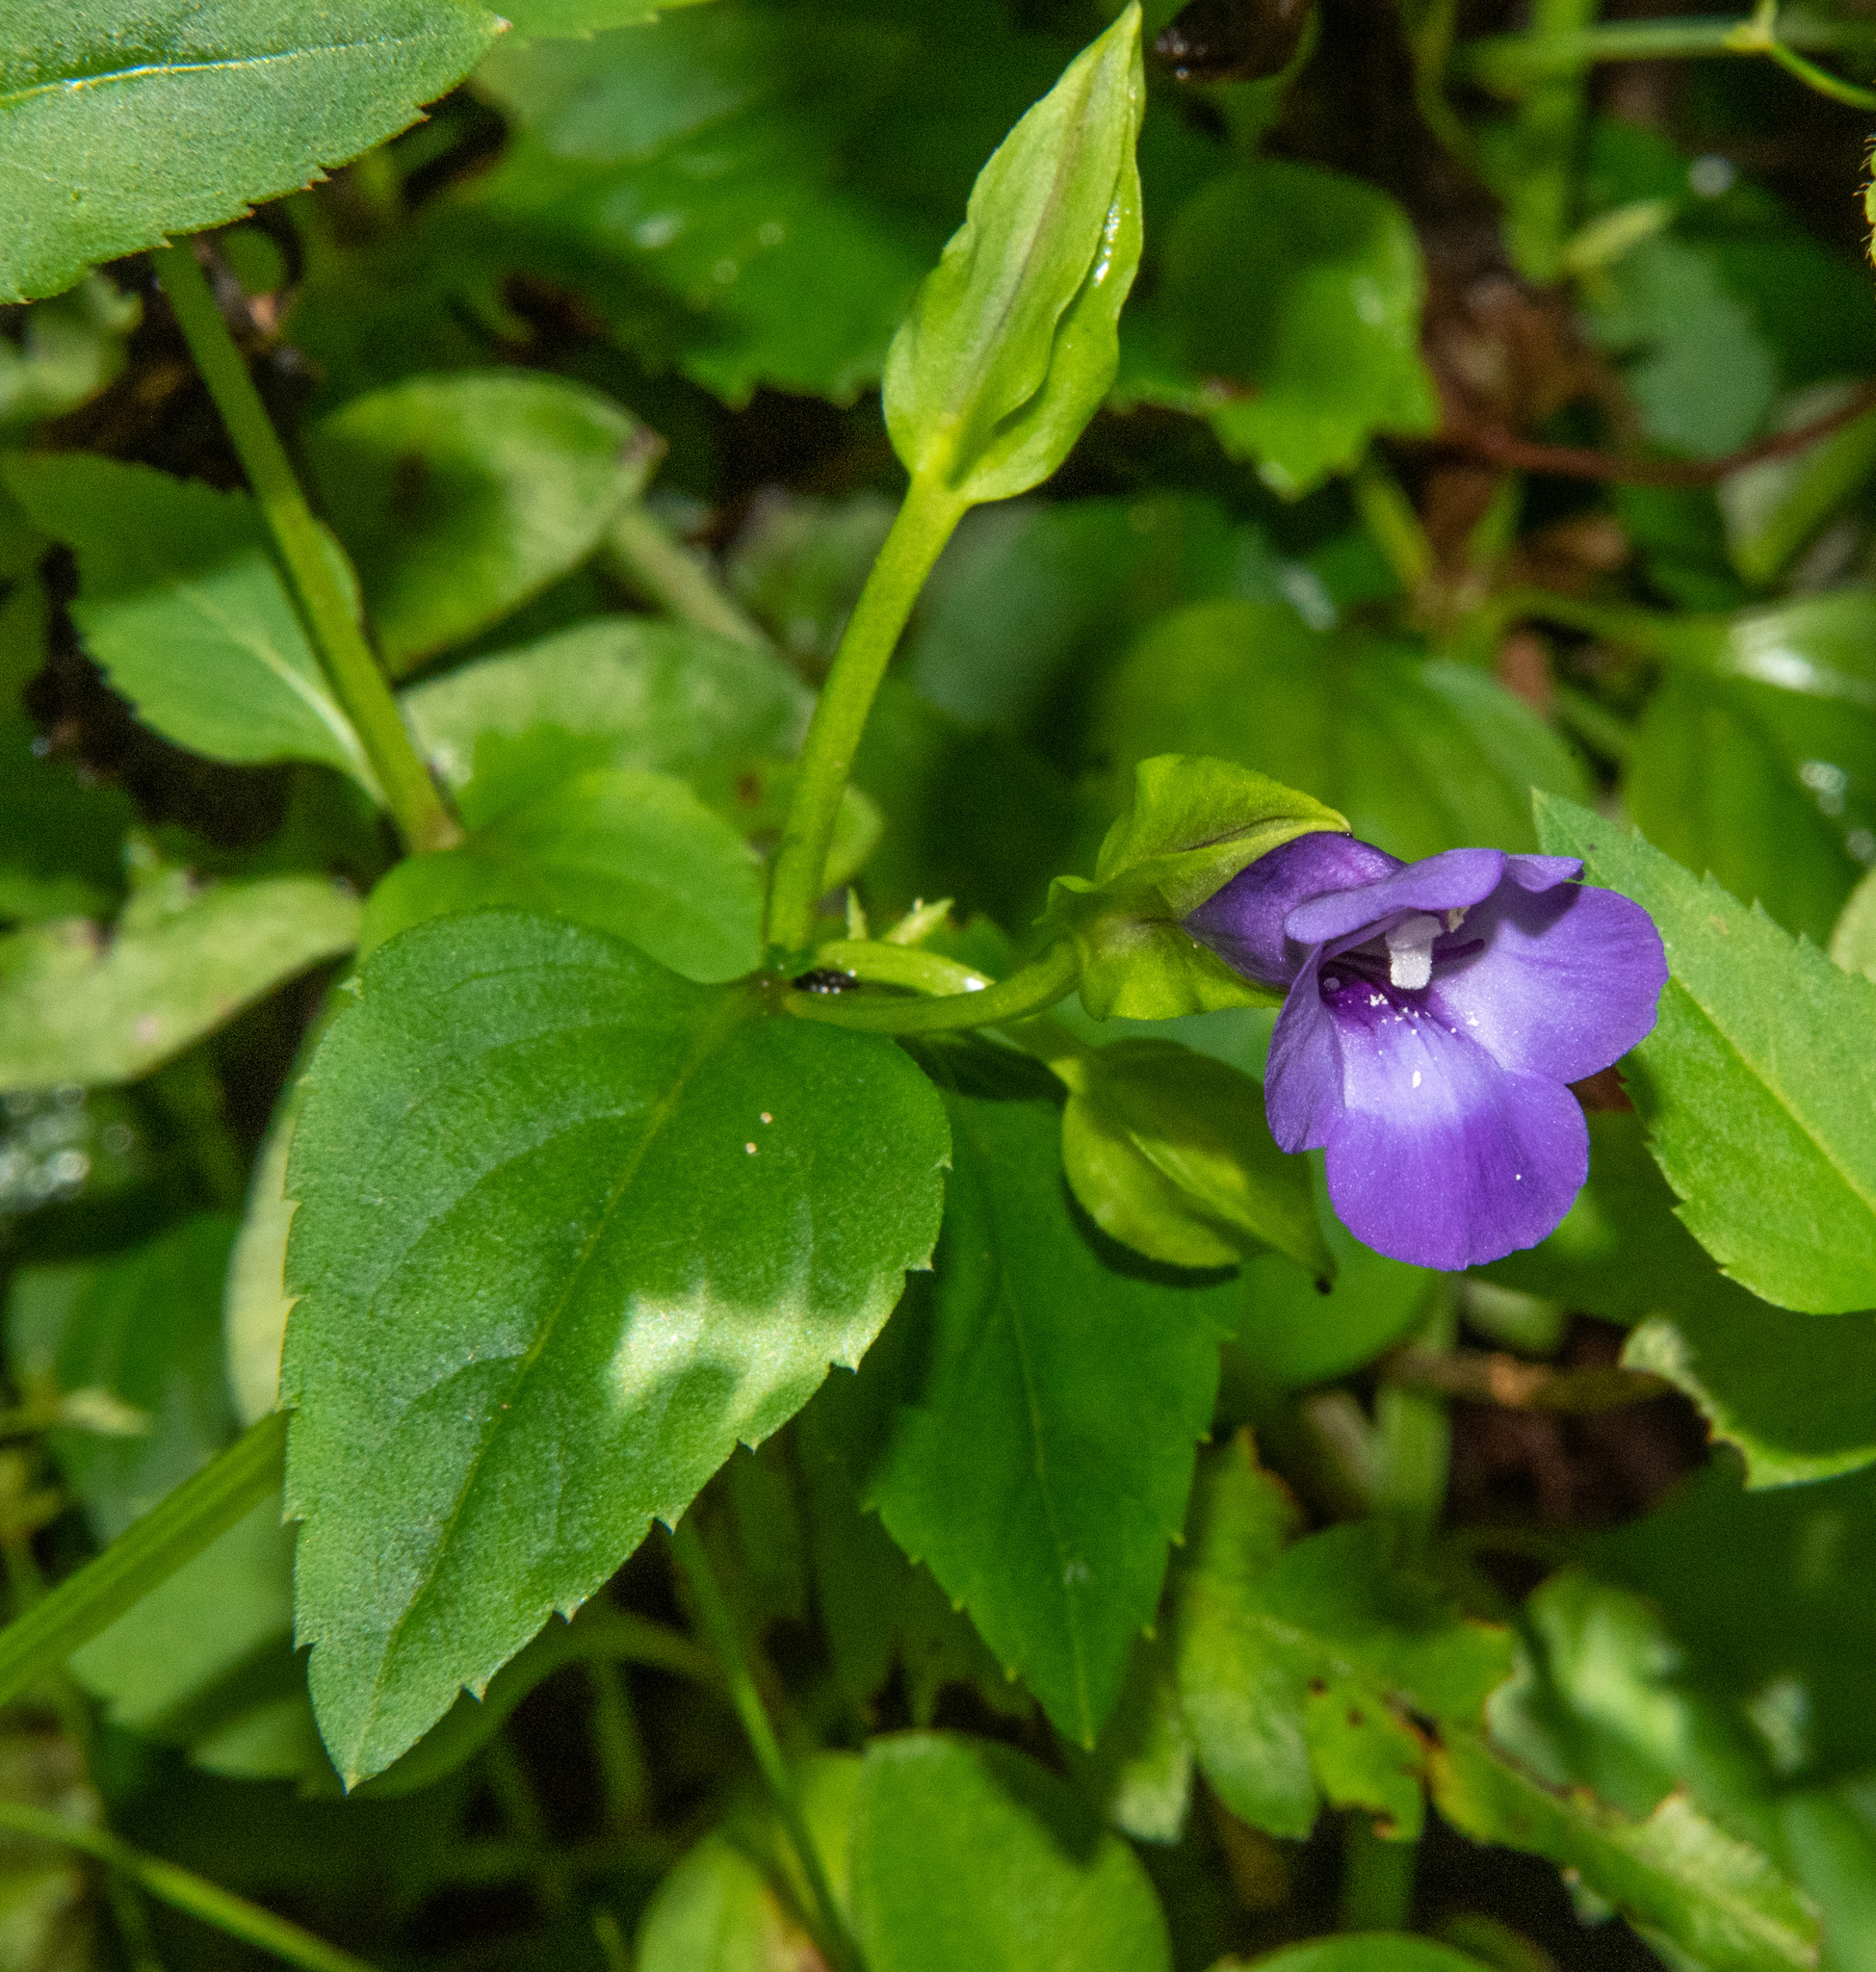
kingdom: Plantae
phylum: Tracheophyta
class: Magnoliopsida
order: Lamiales
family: Linderniaceae
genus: Torenia
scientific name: Torenia asiatica
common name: Wishbone flower
